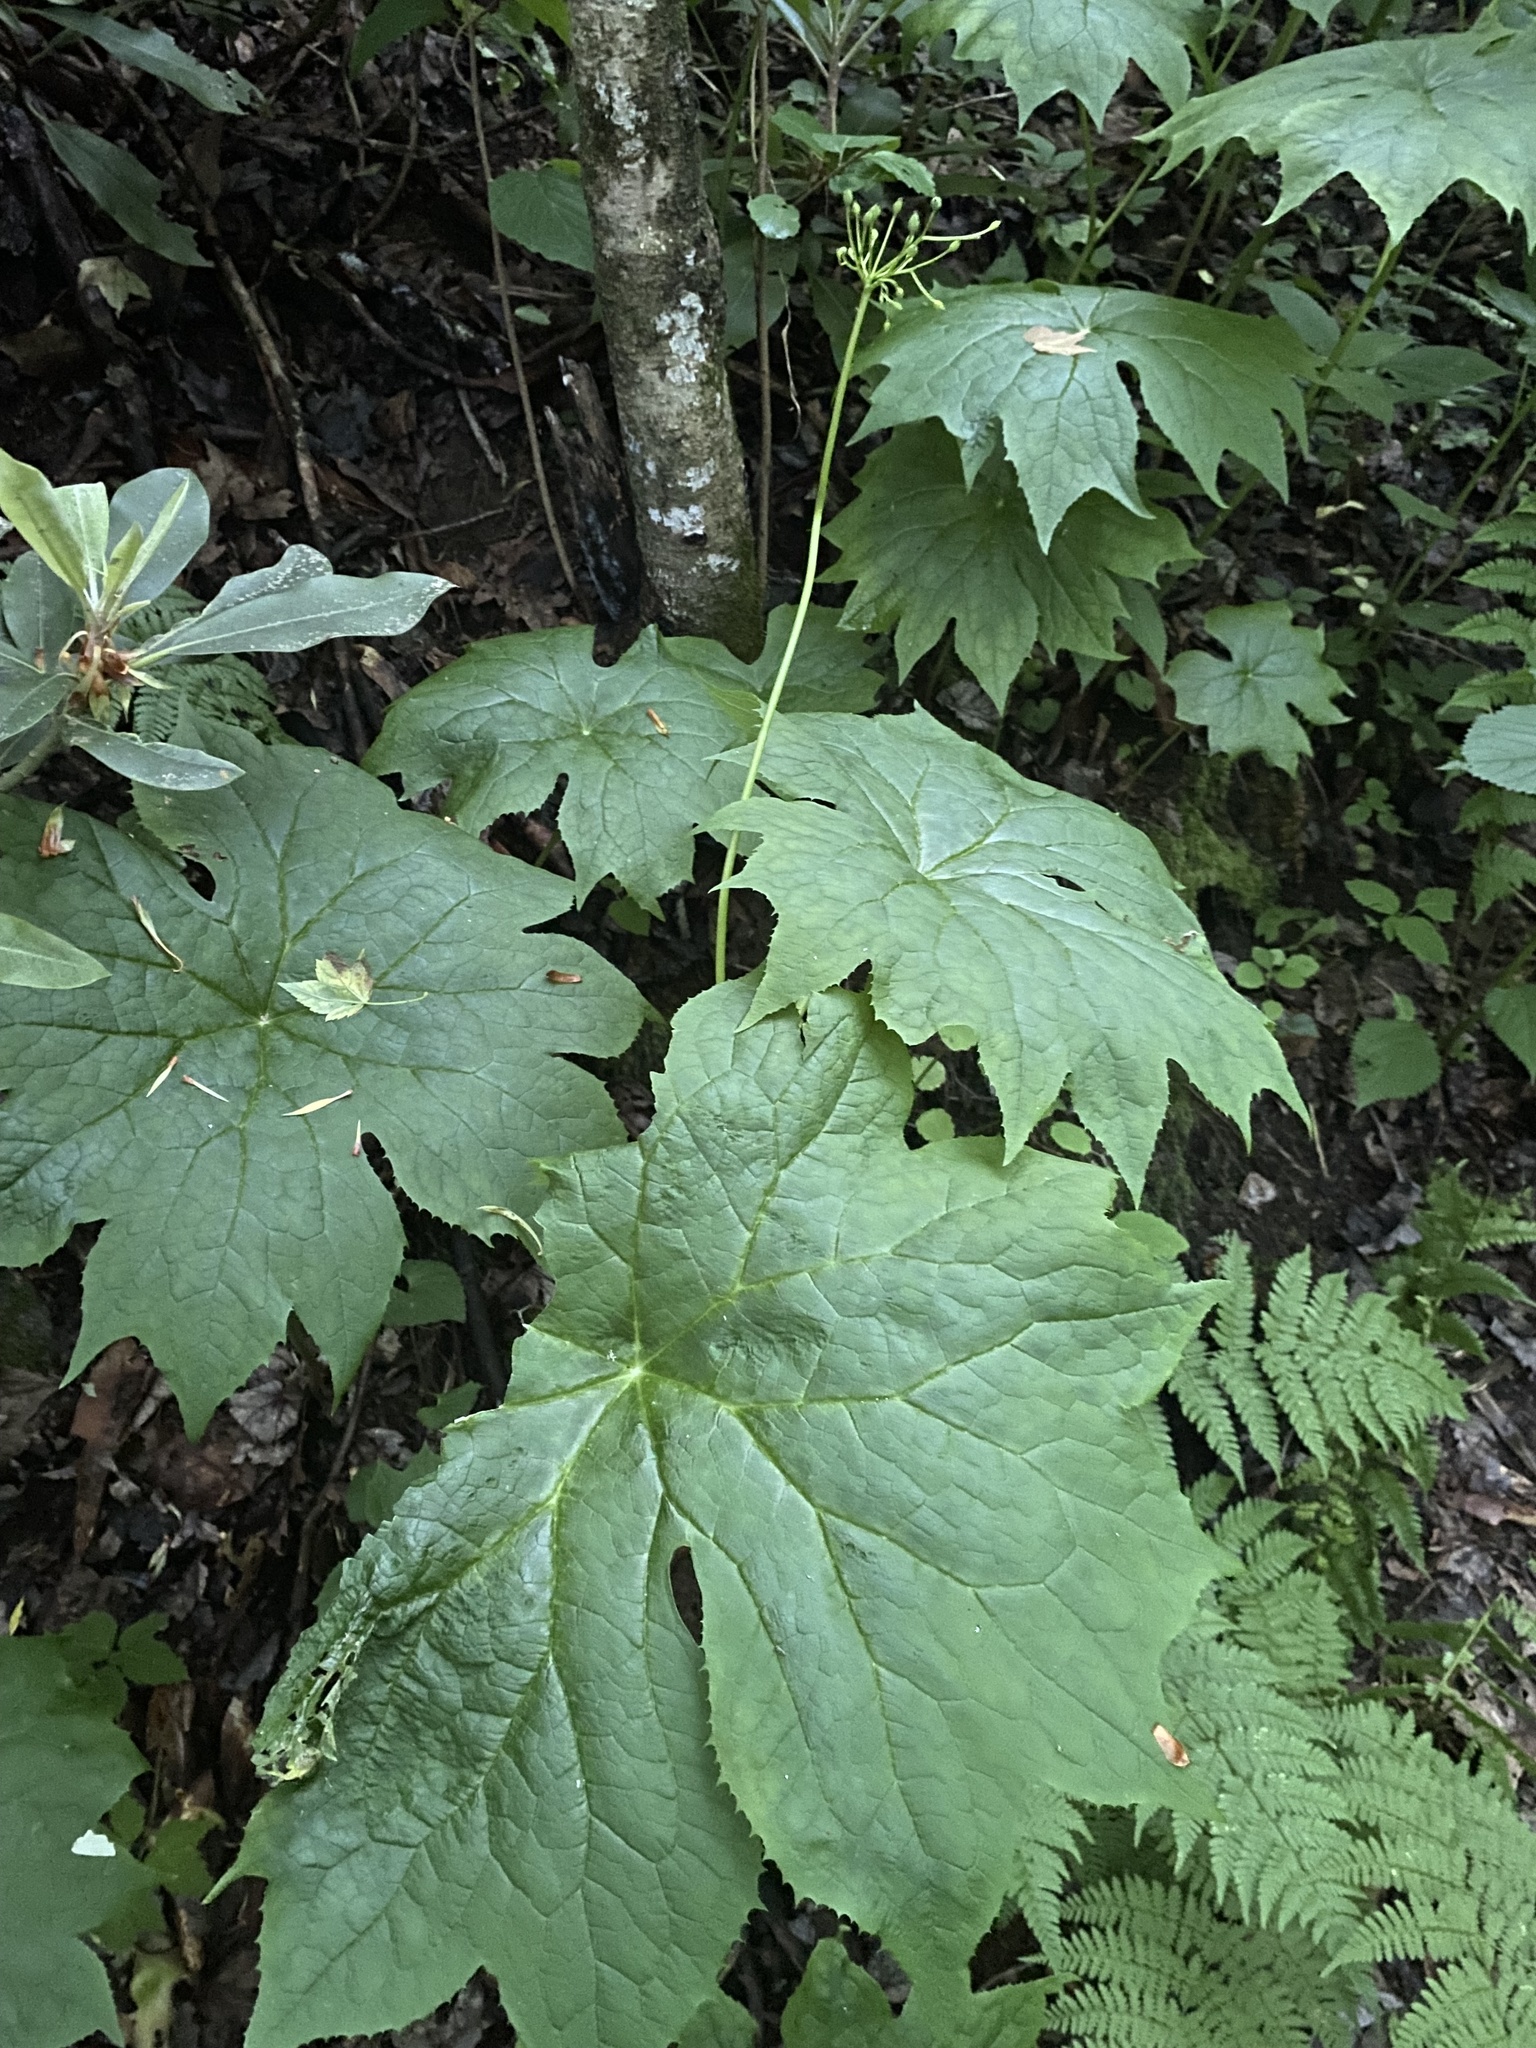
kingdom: Plantae
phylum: Tracheophyta
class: Magnoliopsida
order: Ranunculales
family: Berberidaceae
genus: Diphylleia
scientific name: Diphylleia cymosa
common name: Umbrella-leaf
